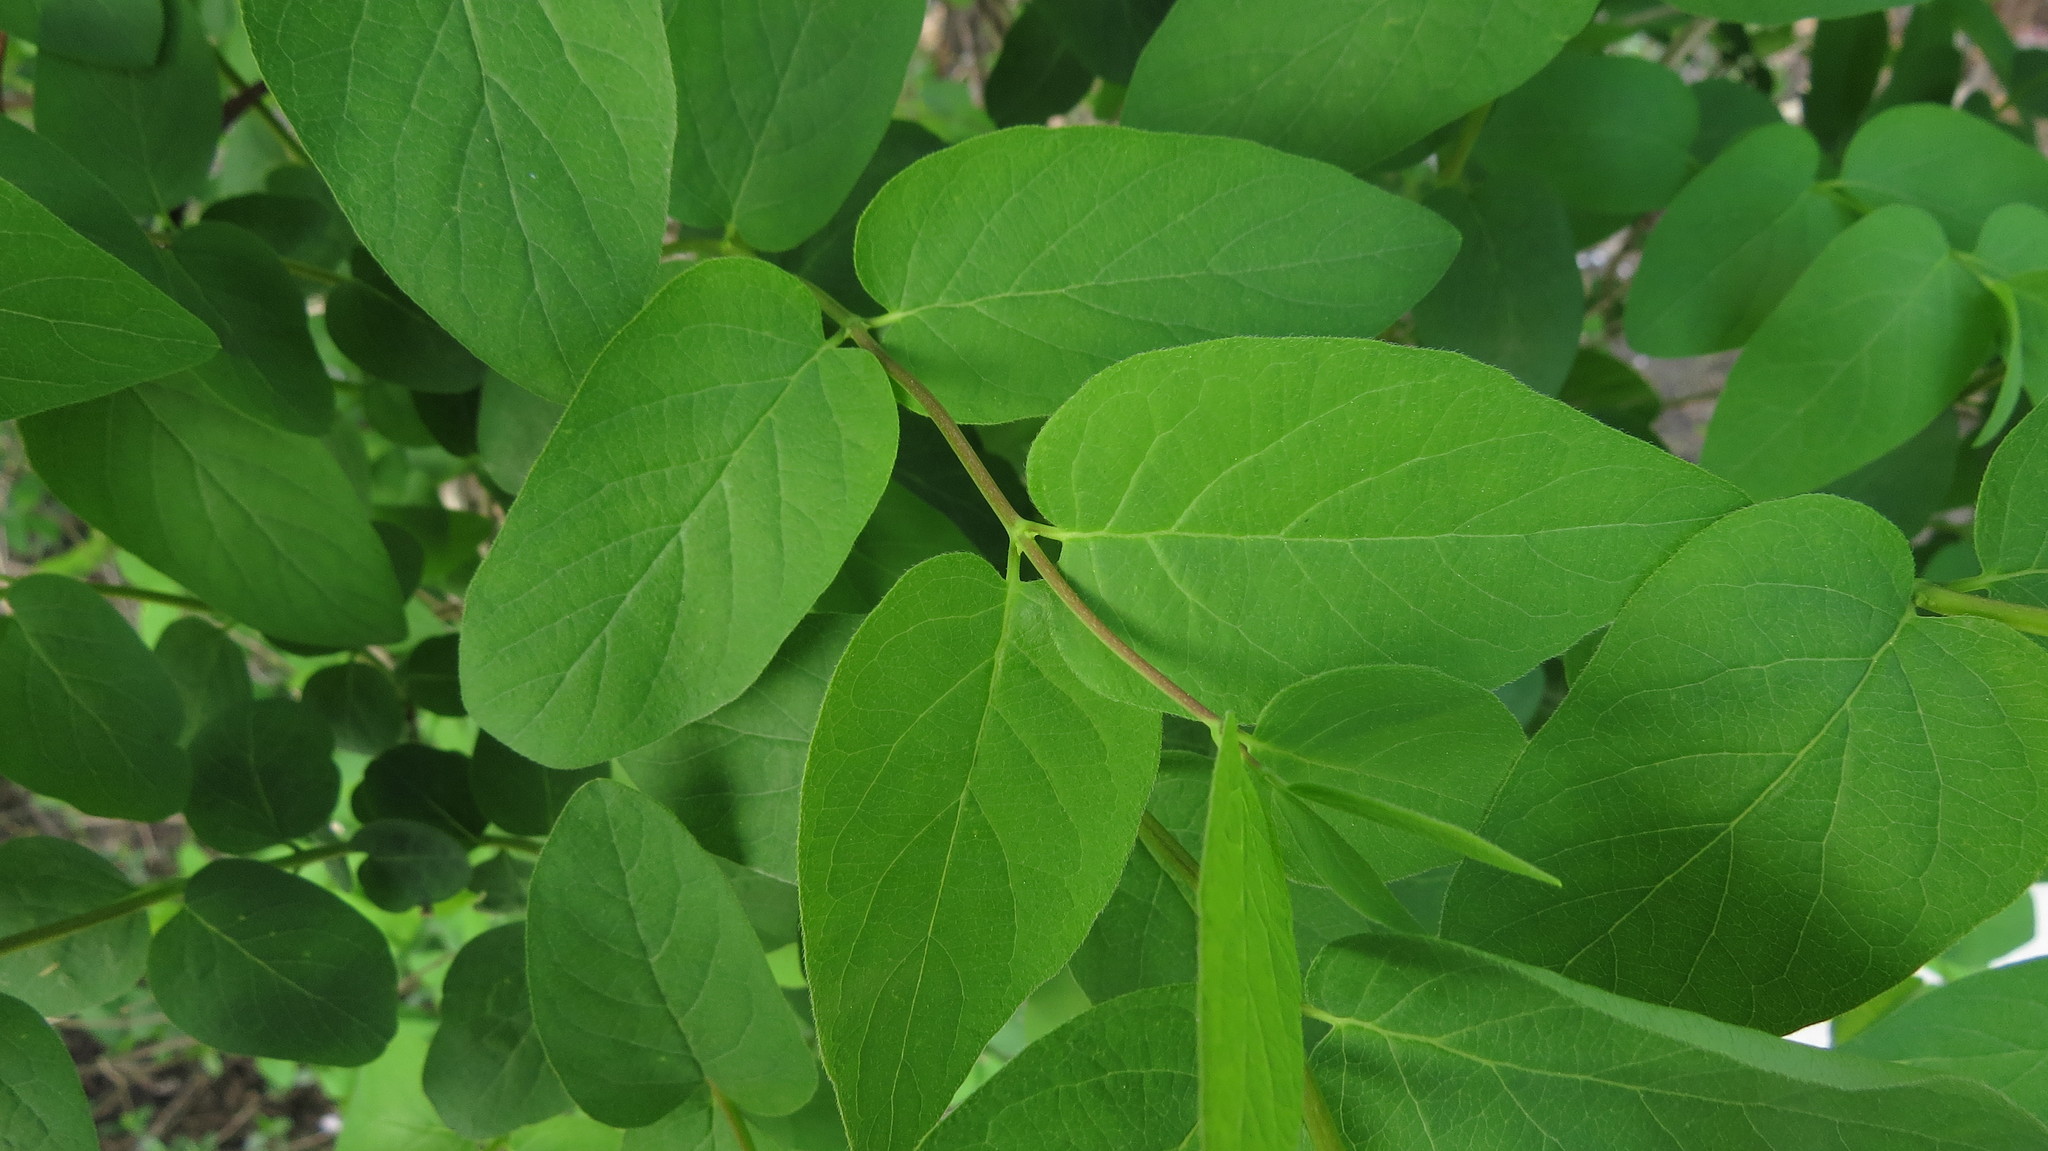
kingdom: Plantae
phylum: Tracheophyta
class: Magnoliopsida
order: Dipsacales
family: Caprifoliaceae
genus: Lonicera
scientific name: Lonicera tatarica
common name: Tatarian honeysuckle
